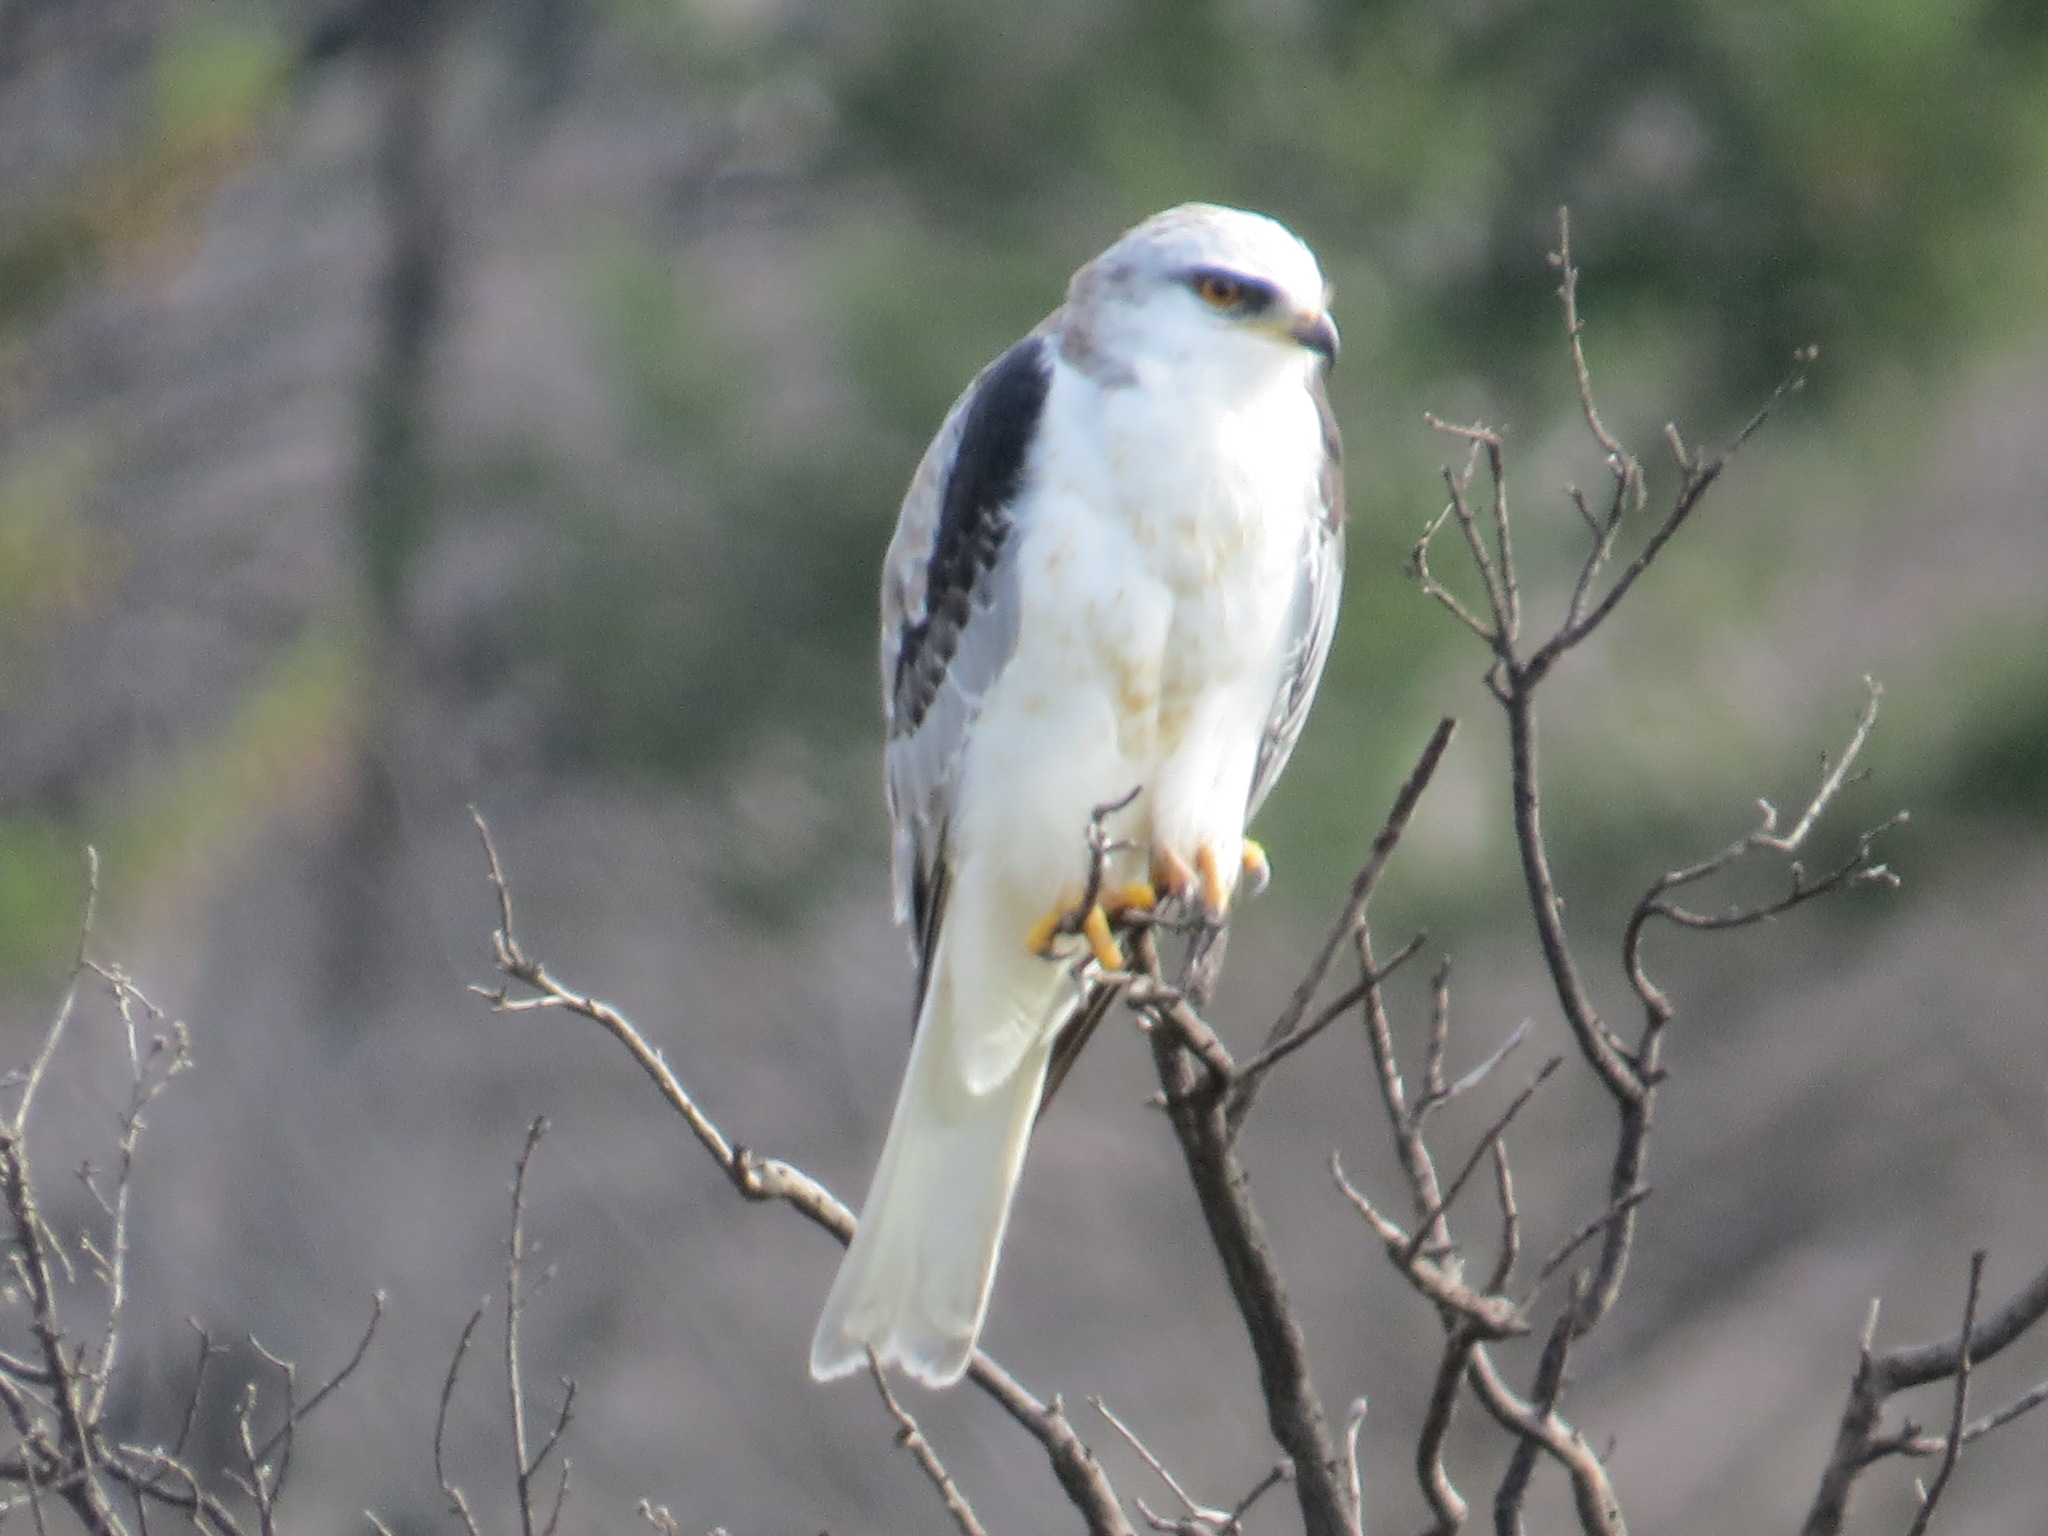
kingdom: Animalia
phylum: Chordata
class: Aves
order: Accipitriformes
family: Accipitridae
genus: Elanus
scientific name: Elanus leucurus
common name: White-tailed kite
